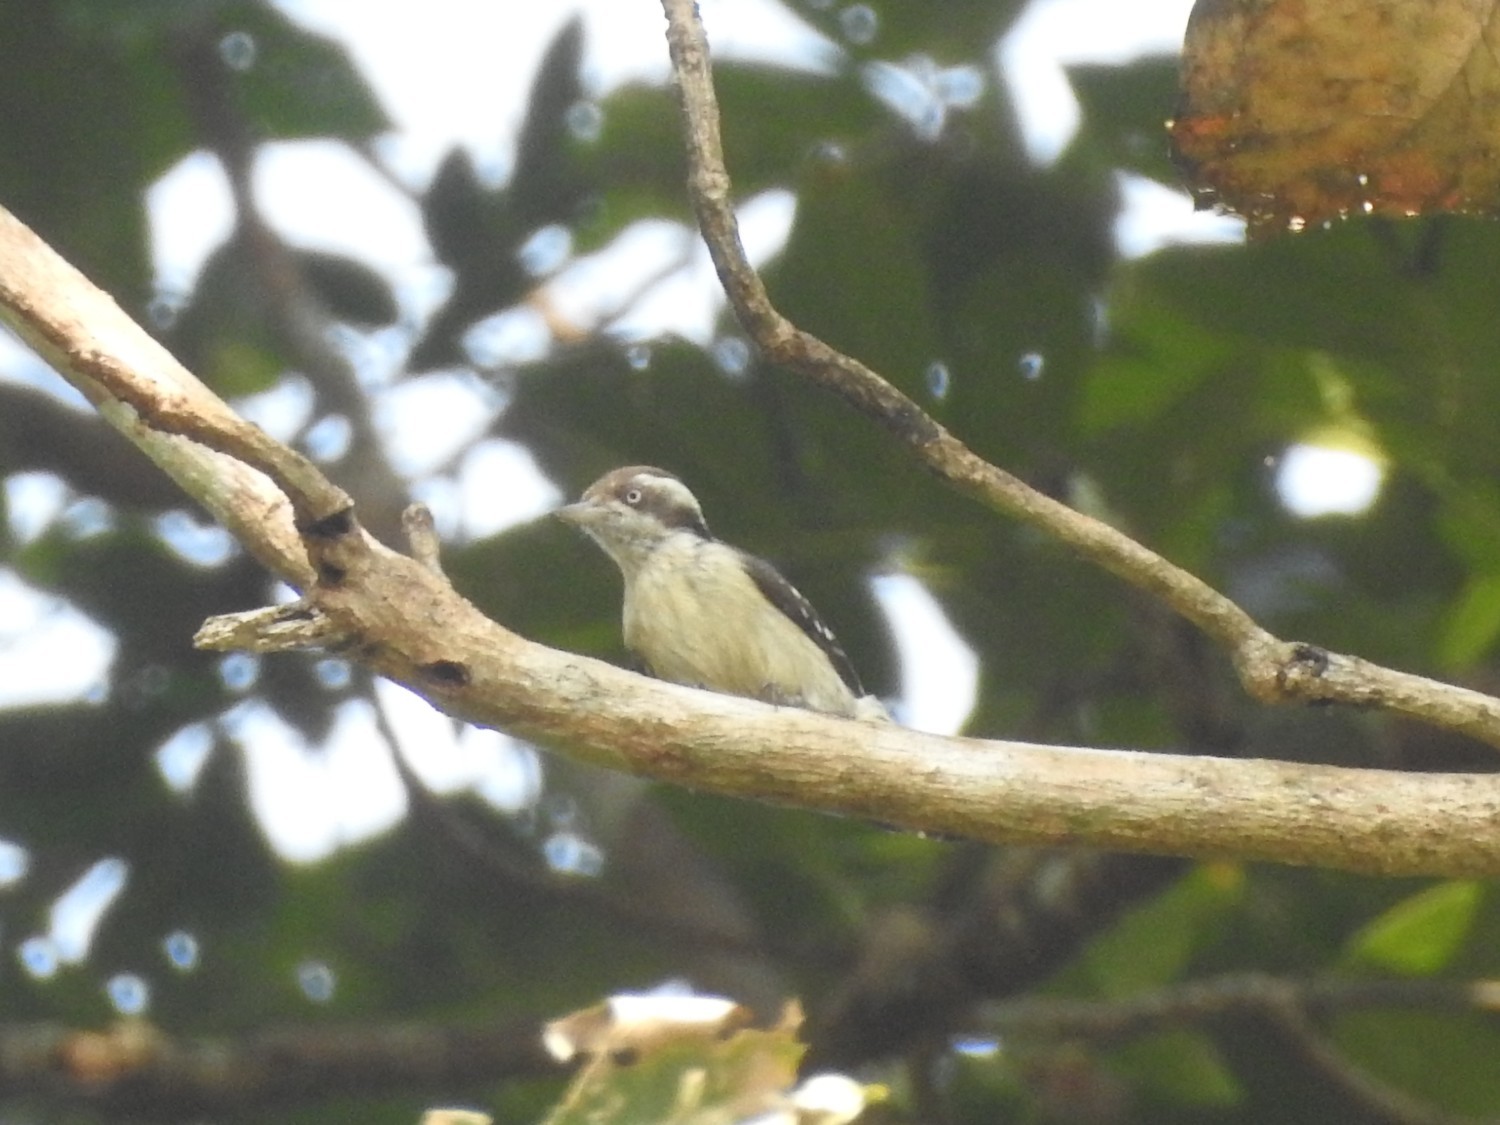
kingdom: Animalia
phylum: Chordata
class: Aves
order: Piciformes
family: Picidae
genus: Yungipicus
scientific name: Yungipicus nanus
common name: Brown-capped pygmy woodpecker
